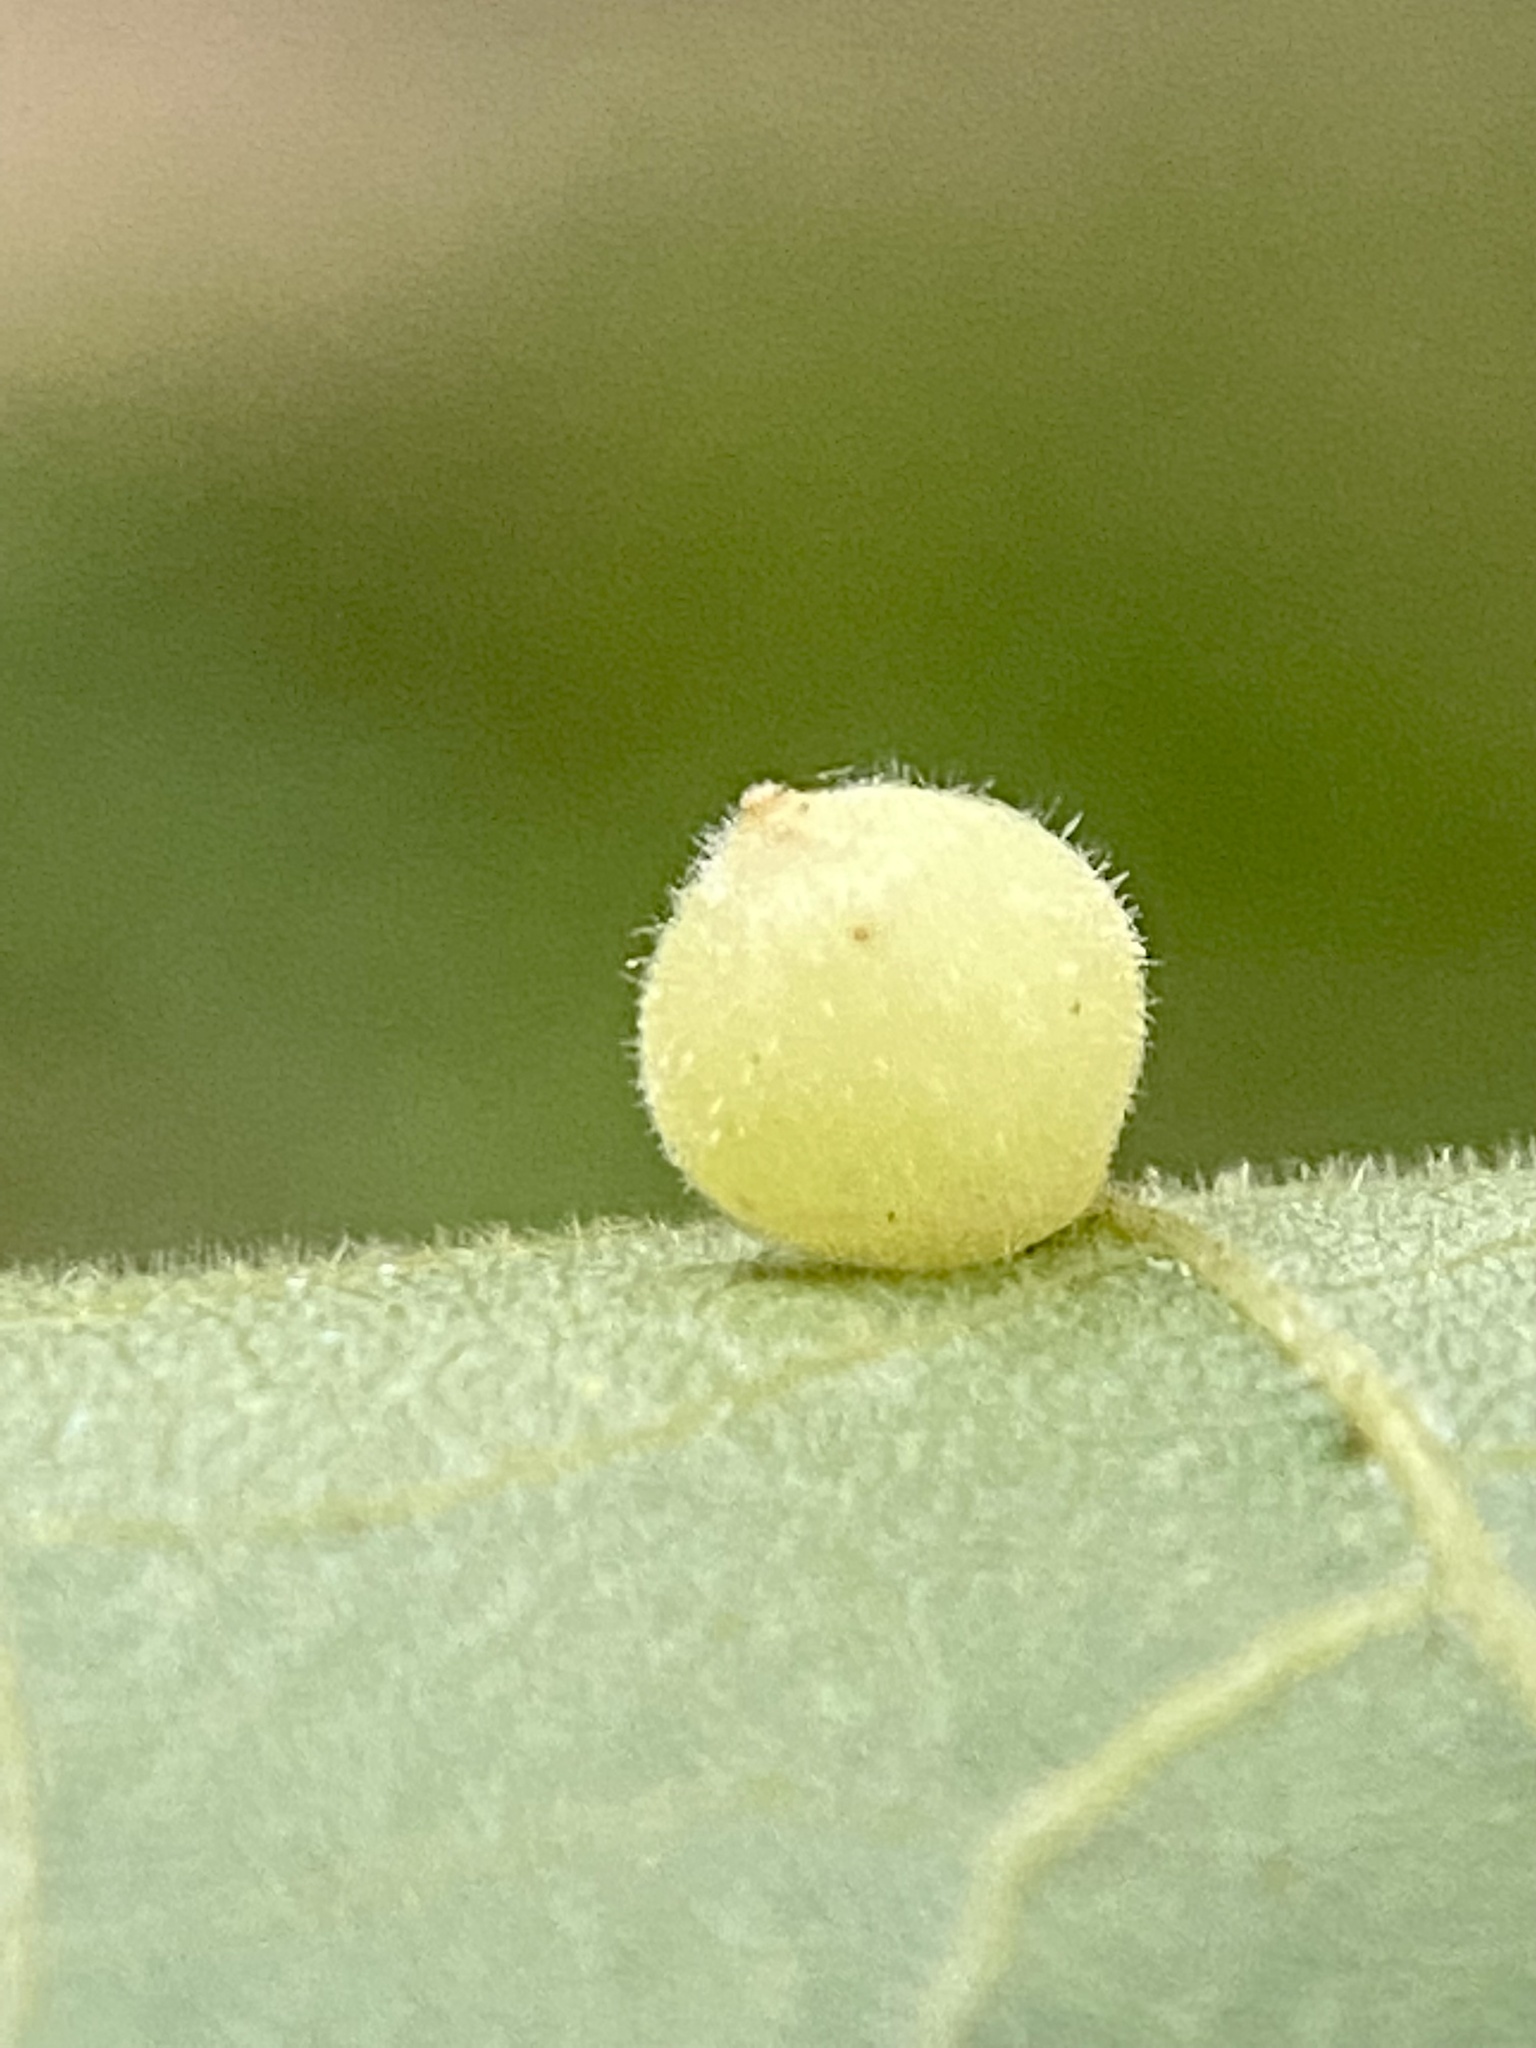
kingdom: Animalia
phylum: Arthropoda
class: Insecta
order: Diptera
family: Cecidomyiidae
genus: Caryomyia
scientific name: Caryomyia cilidolium
